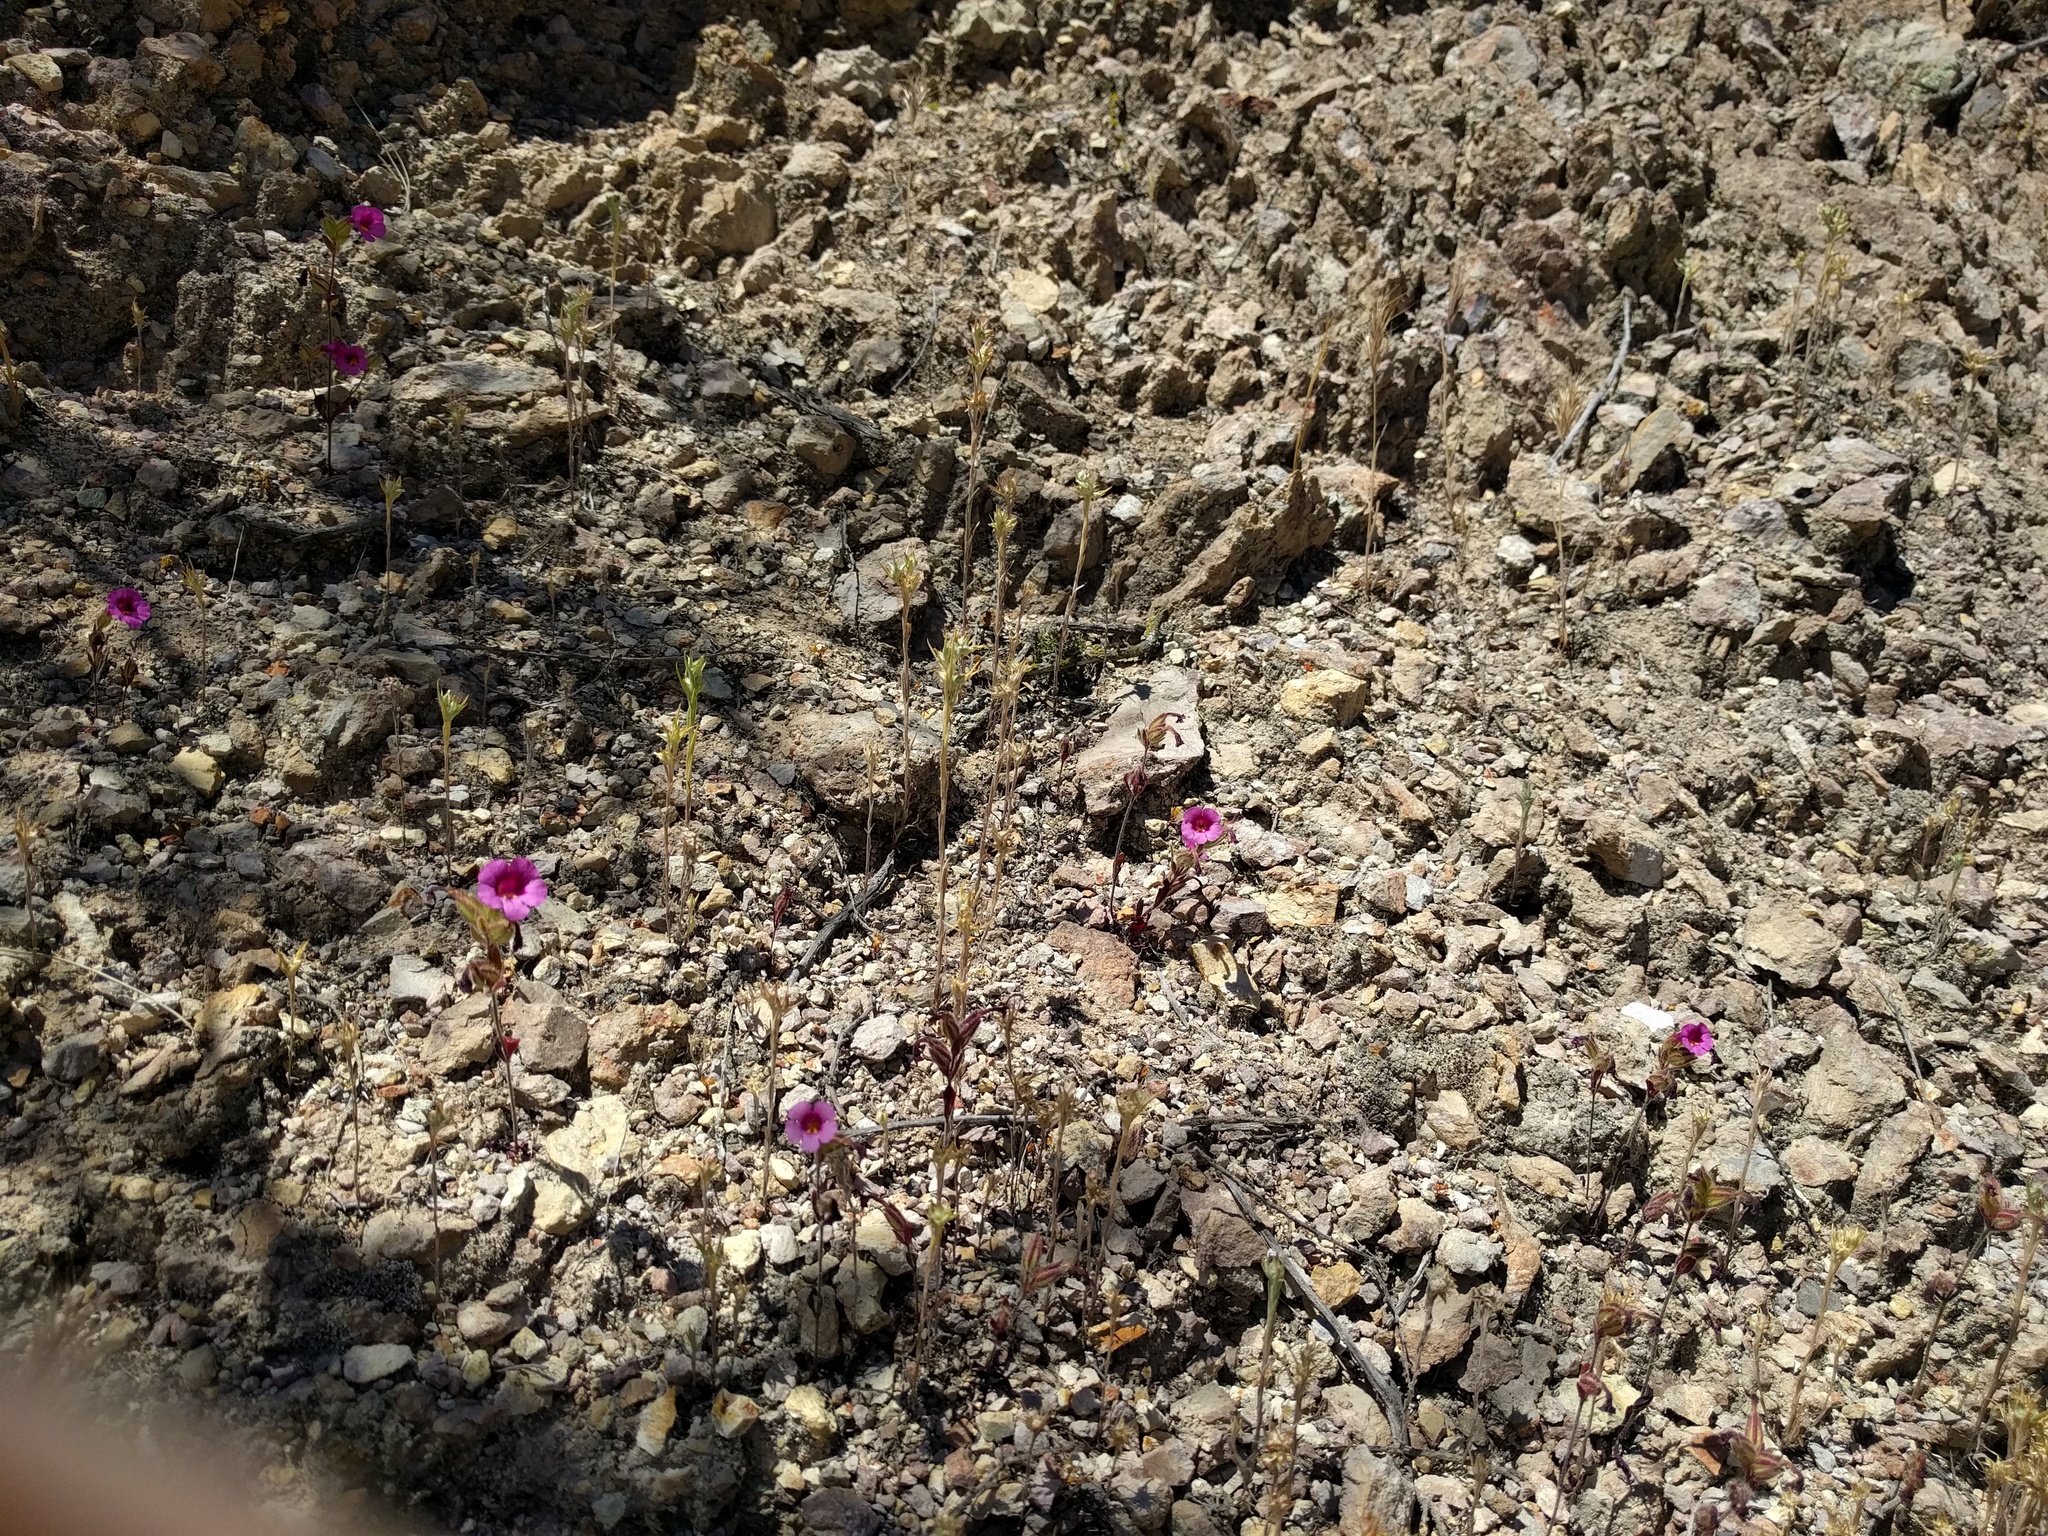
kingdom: Plantae
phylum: Tracheophyta
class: Magnoliopsida
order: Lamiales
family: Phrymaceae
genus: Diplacus
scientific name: Diplacus fremontii
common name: Fremont's monkey-flower
